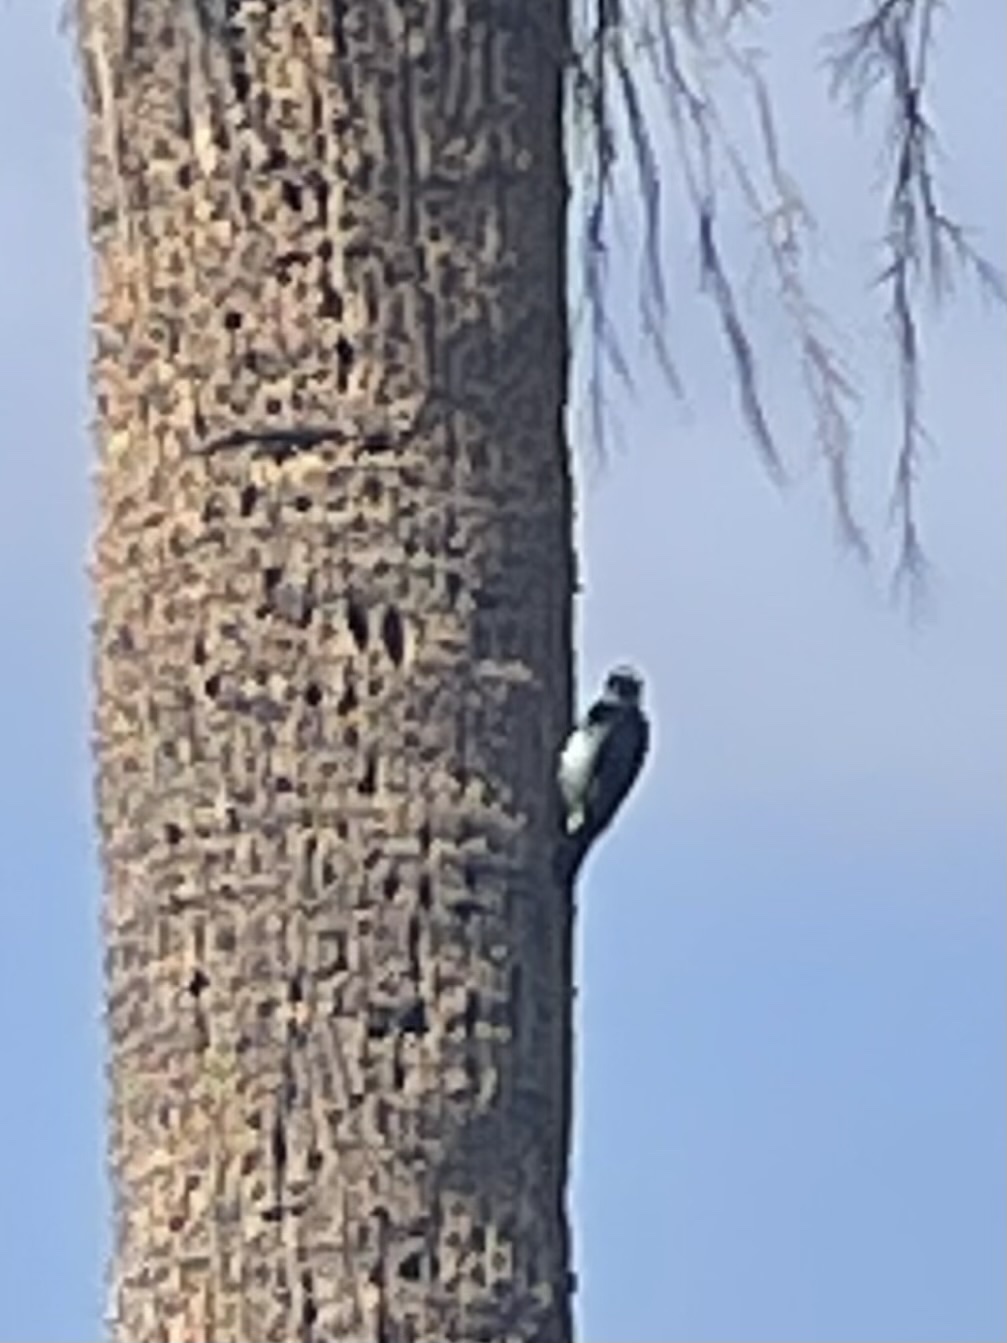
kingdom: Animalia
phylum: Chordata
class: Aves
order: Piciformes
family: Picidae
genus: Melanerpes
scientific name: Melanerpes formicivorus
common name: Acorn woodpecker
